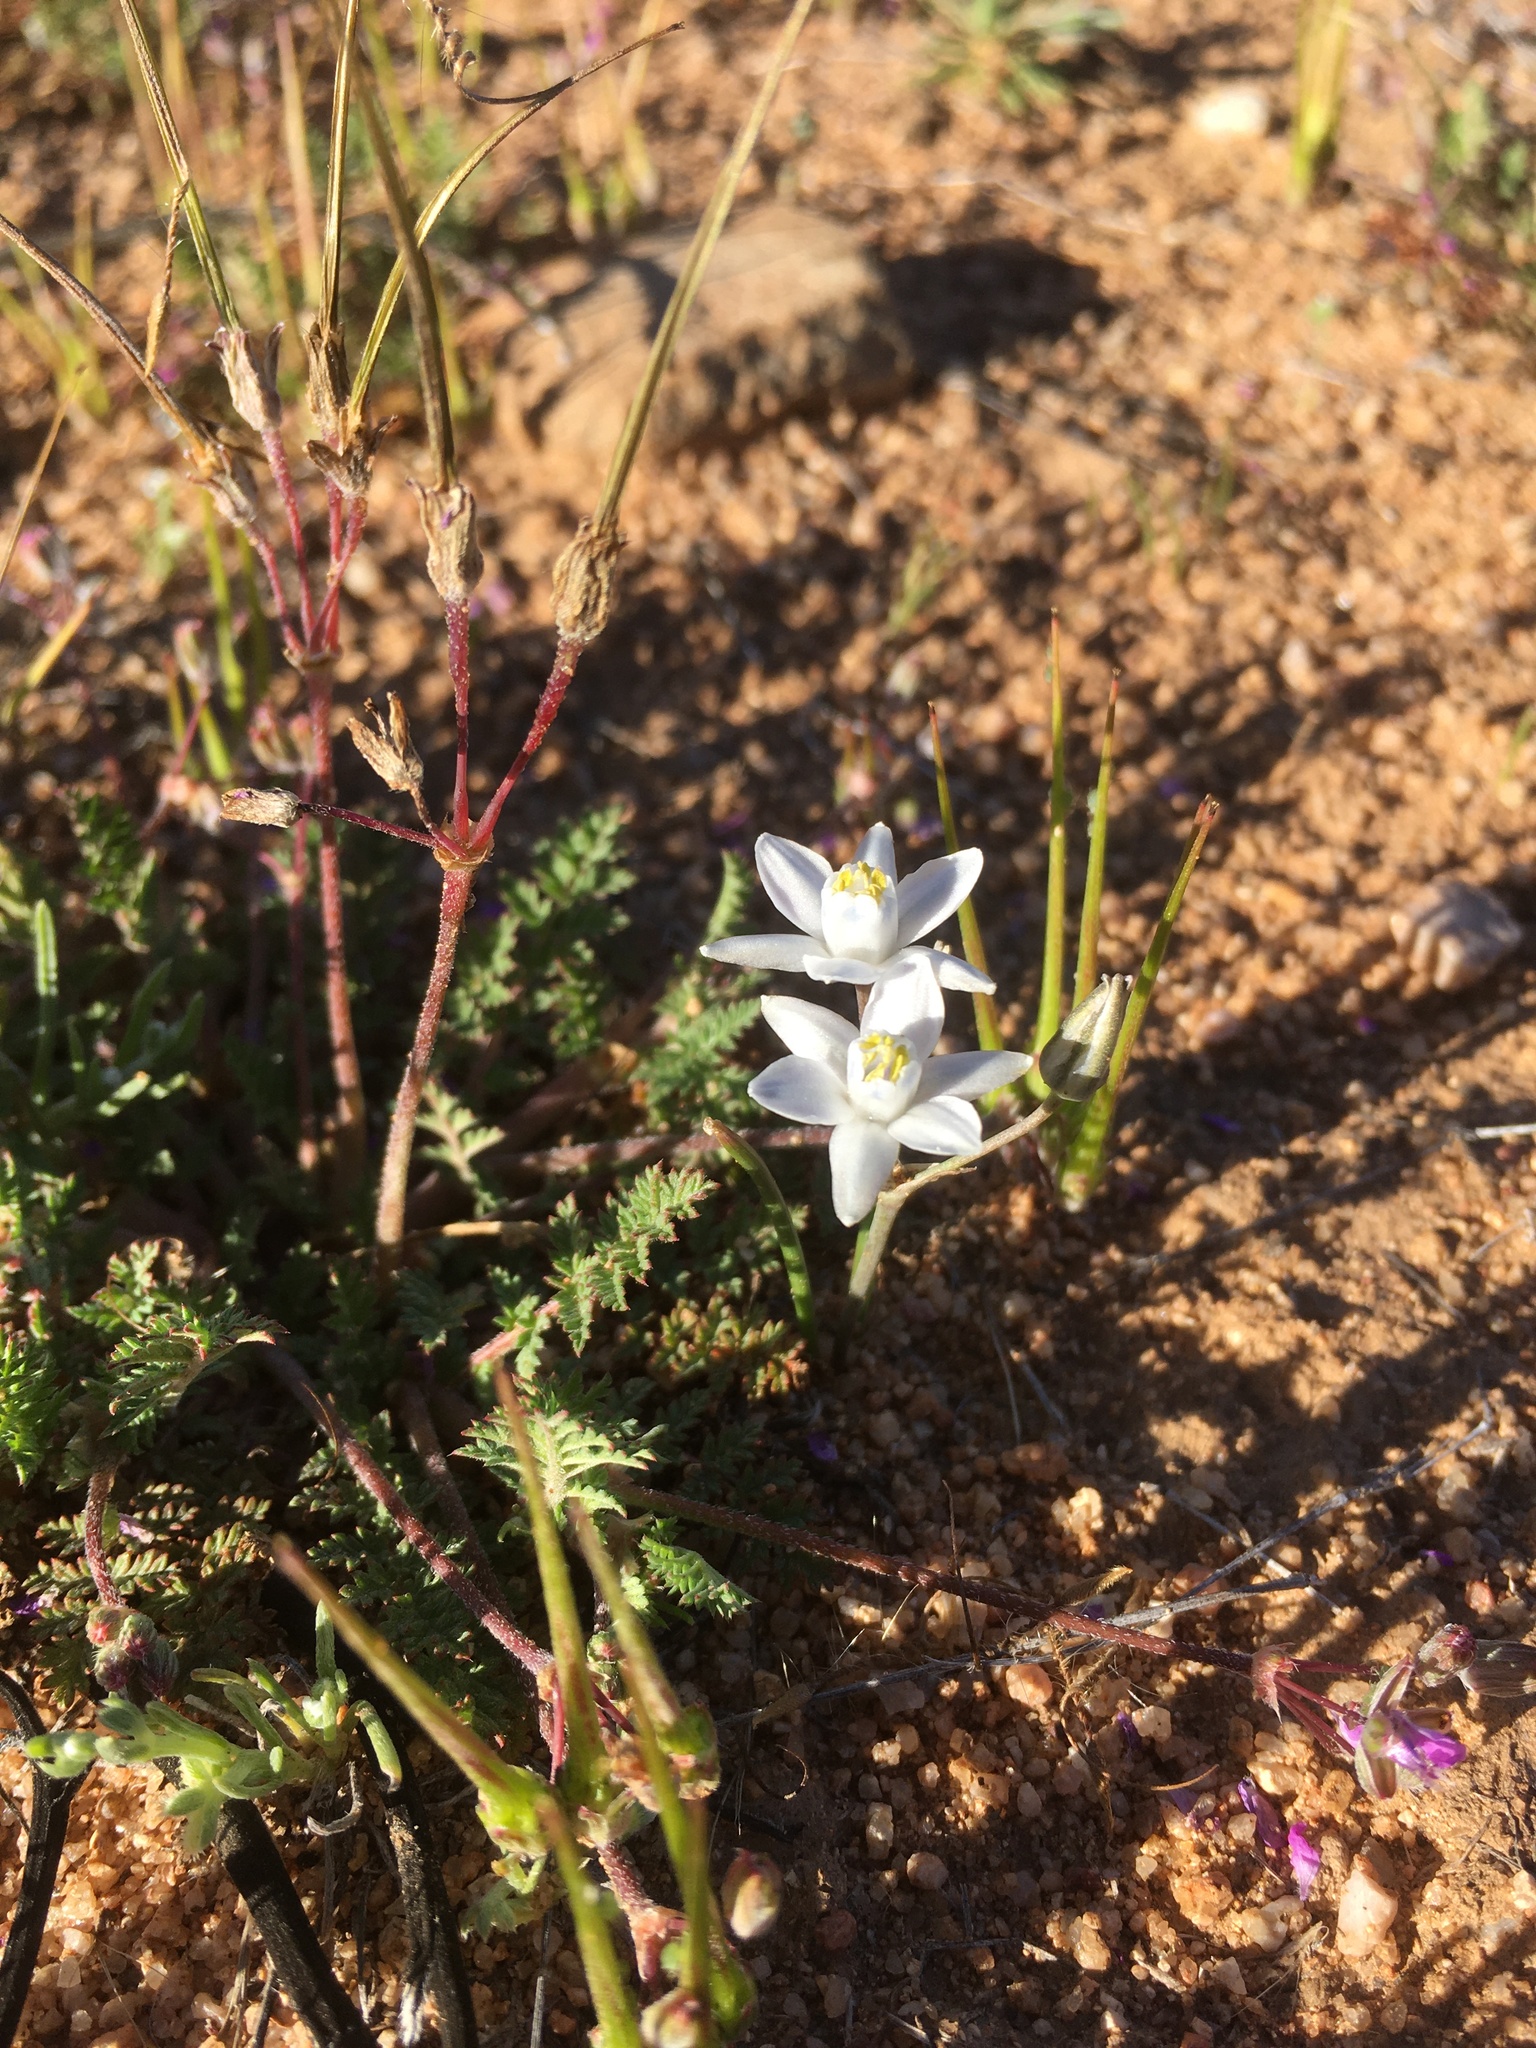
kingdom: Plantae
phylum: Tracheophyta
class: Liliopsida
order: Asparagales
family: Asparagaceae
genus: Muilla
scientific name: Muilla lordsburgana
